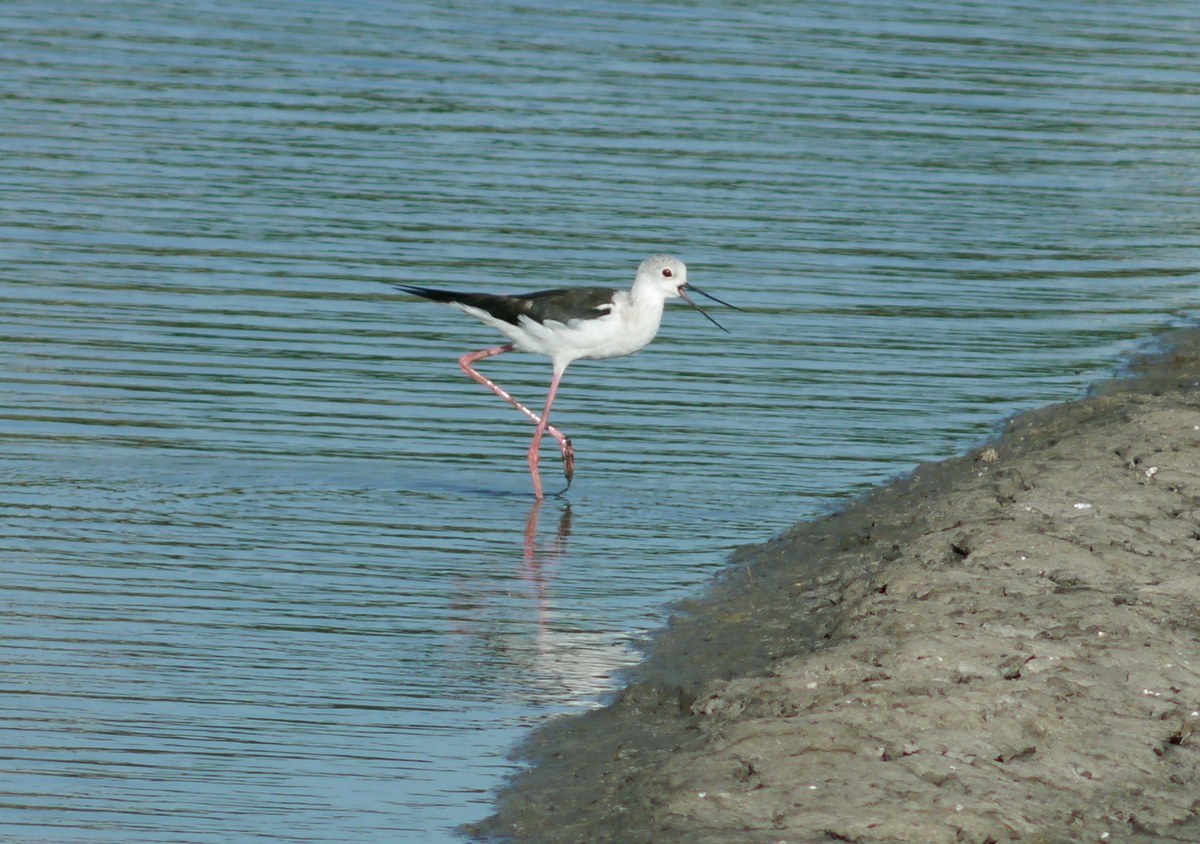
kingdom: Animalia
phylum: Chordata
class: Aves
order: Charadriiformes
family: Recurvirostridae
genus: Himantopus
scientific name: Himantopus himantopus
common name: Black-winged stilt
